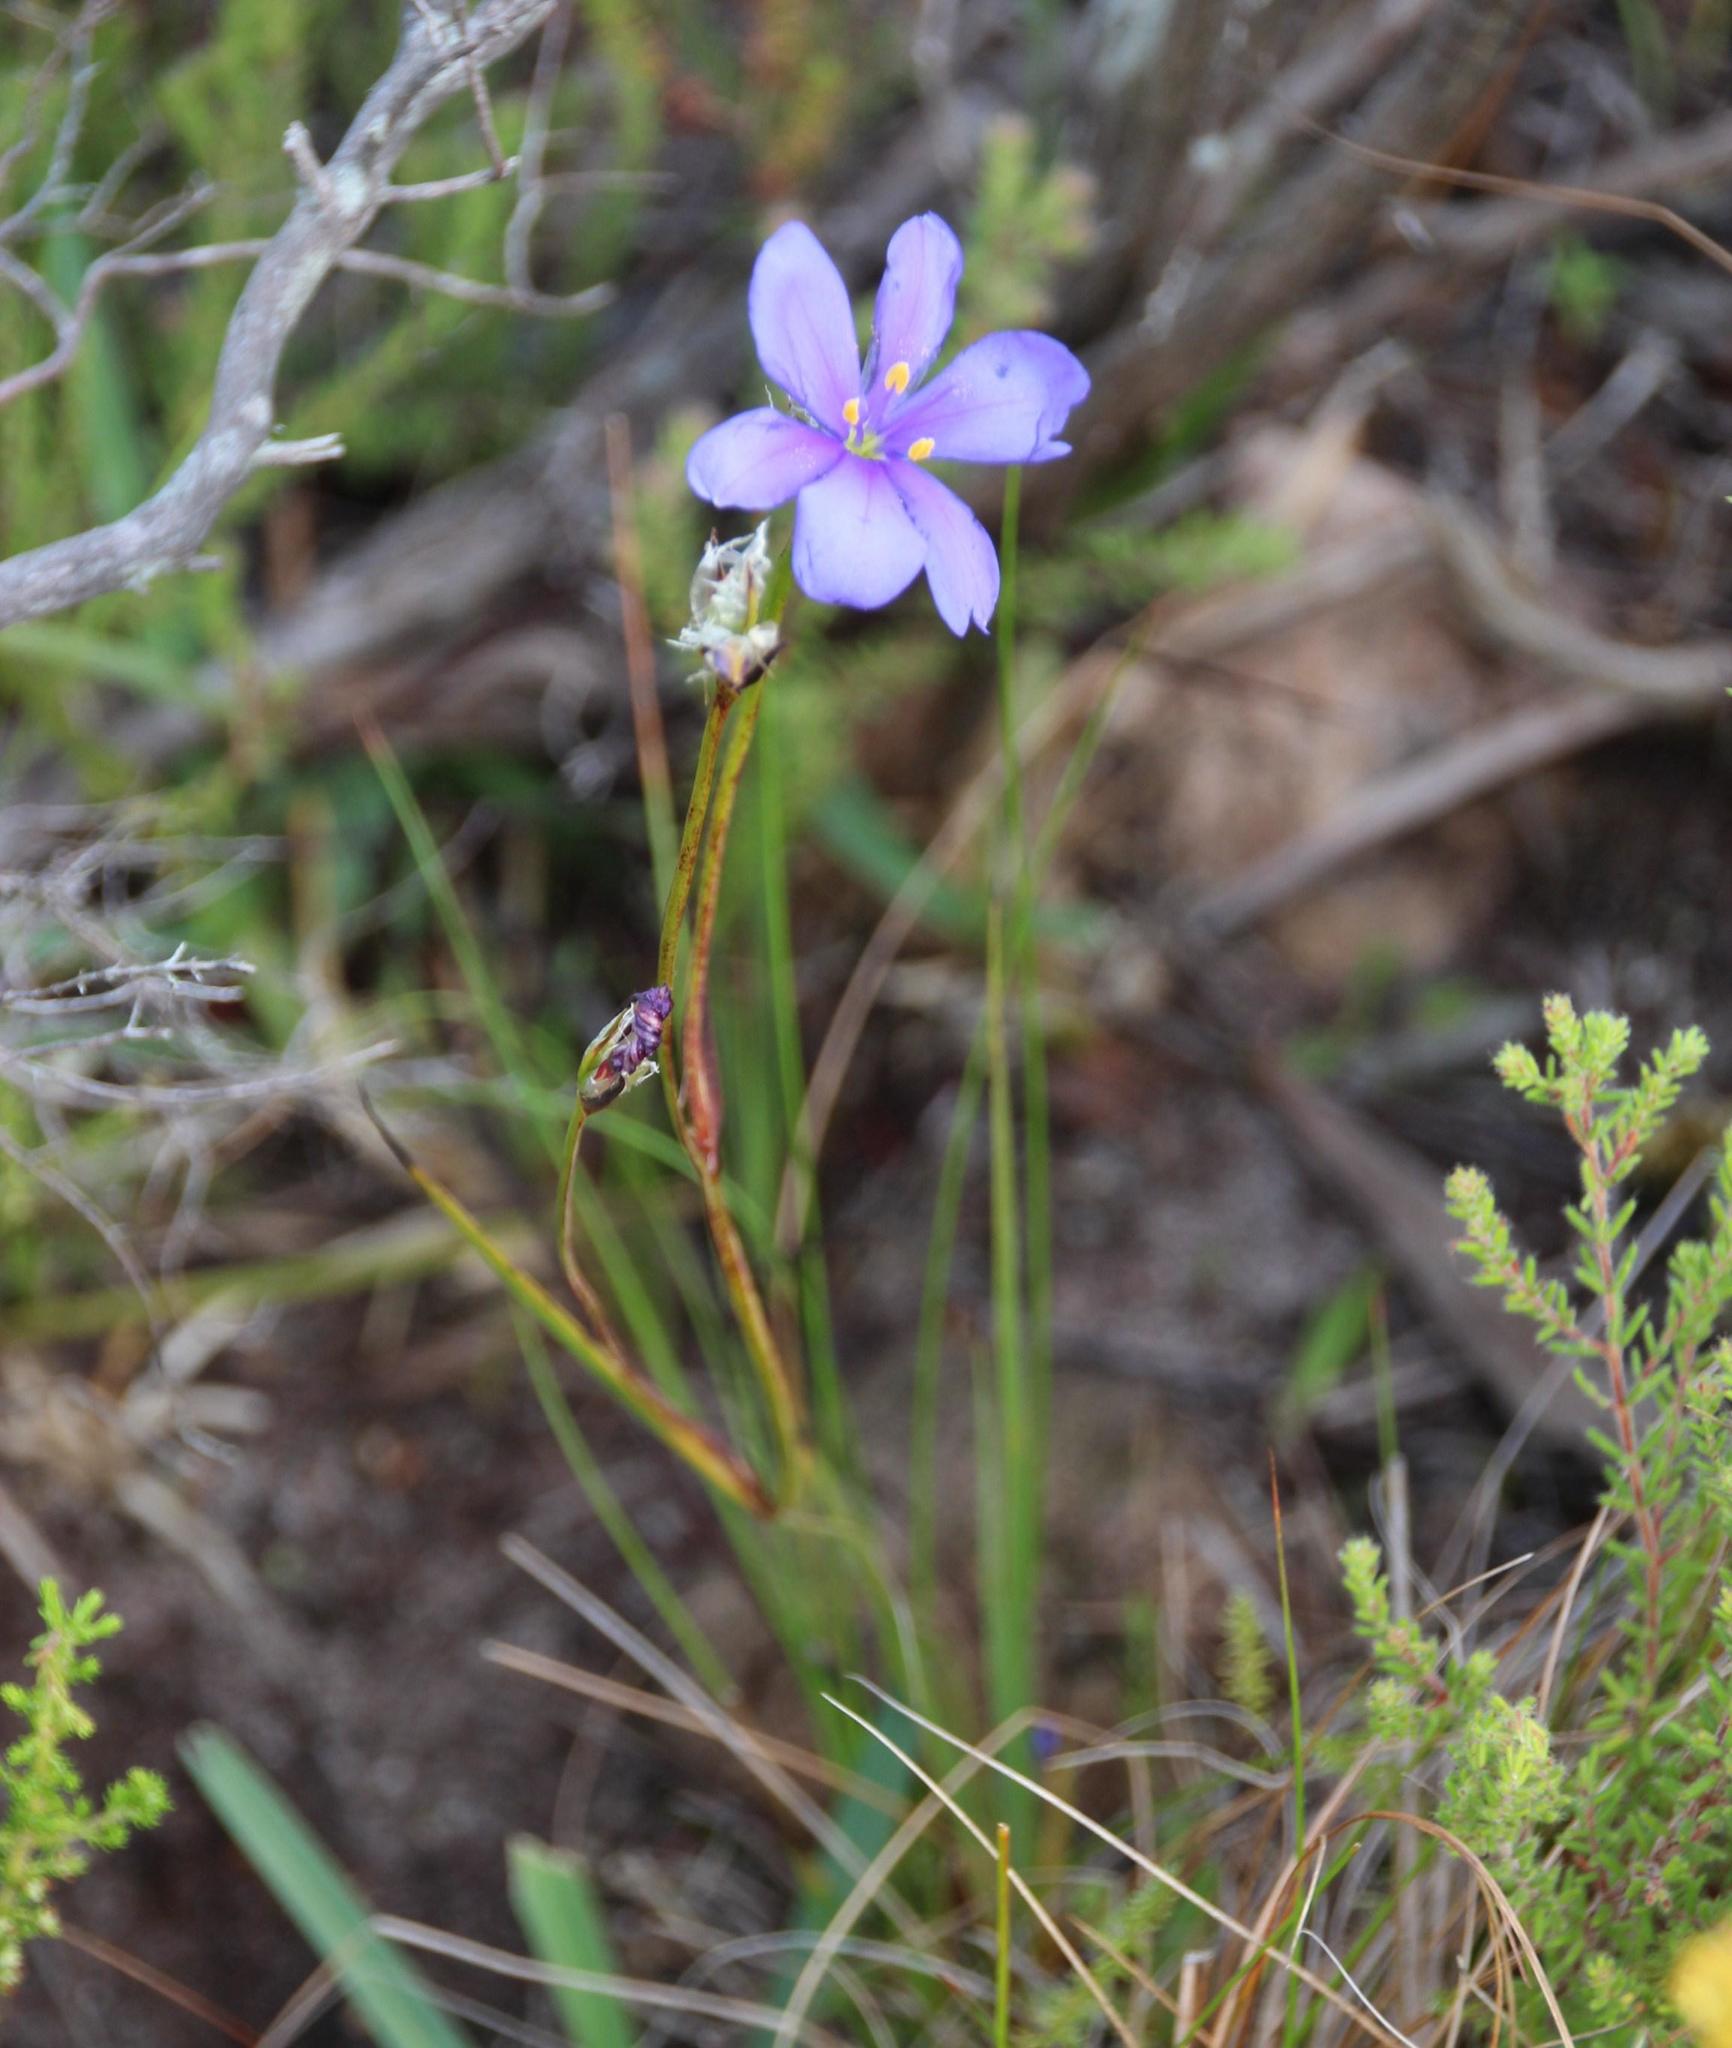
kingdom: Plantae
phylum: Tracheophyta
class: Liliopsida
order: Asparagales
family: Iridaceae
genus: Aristea
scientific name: Aristea africana
